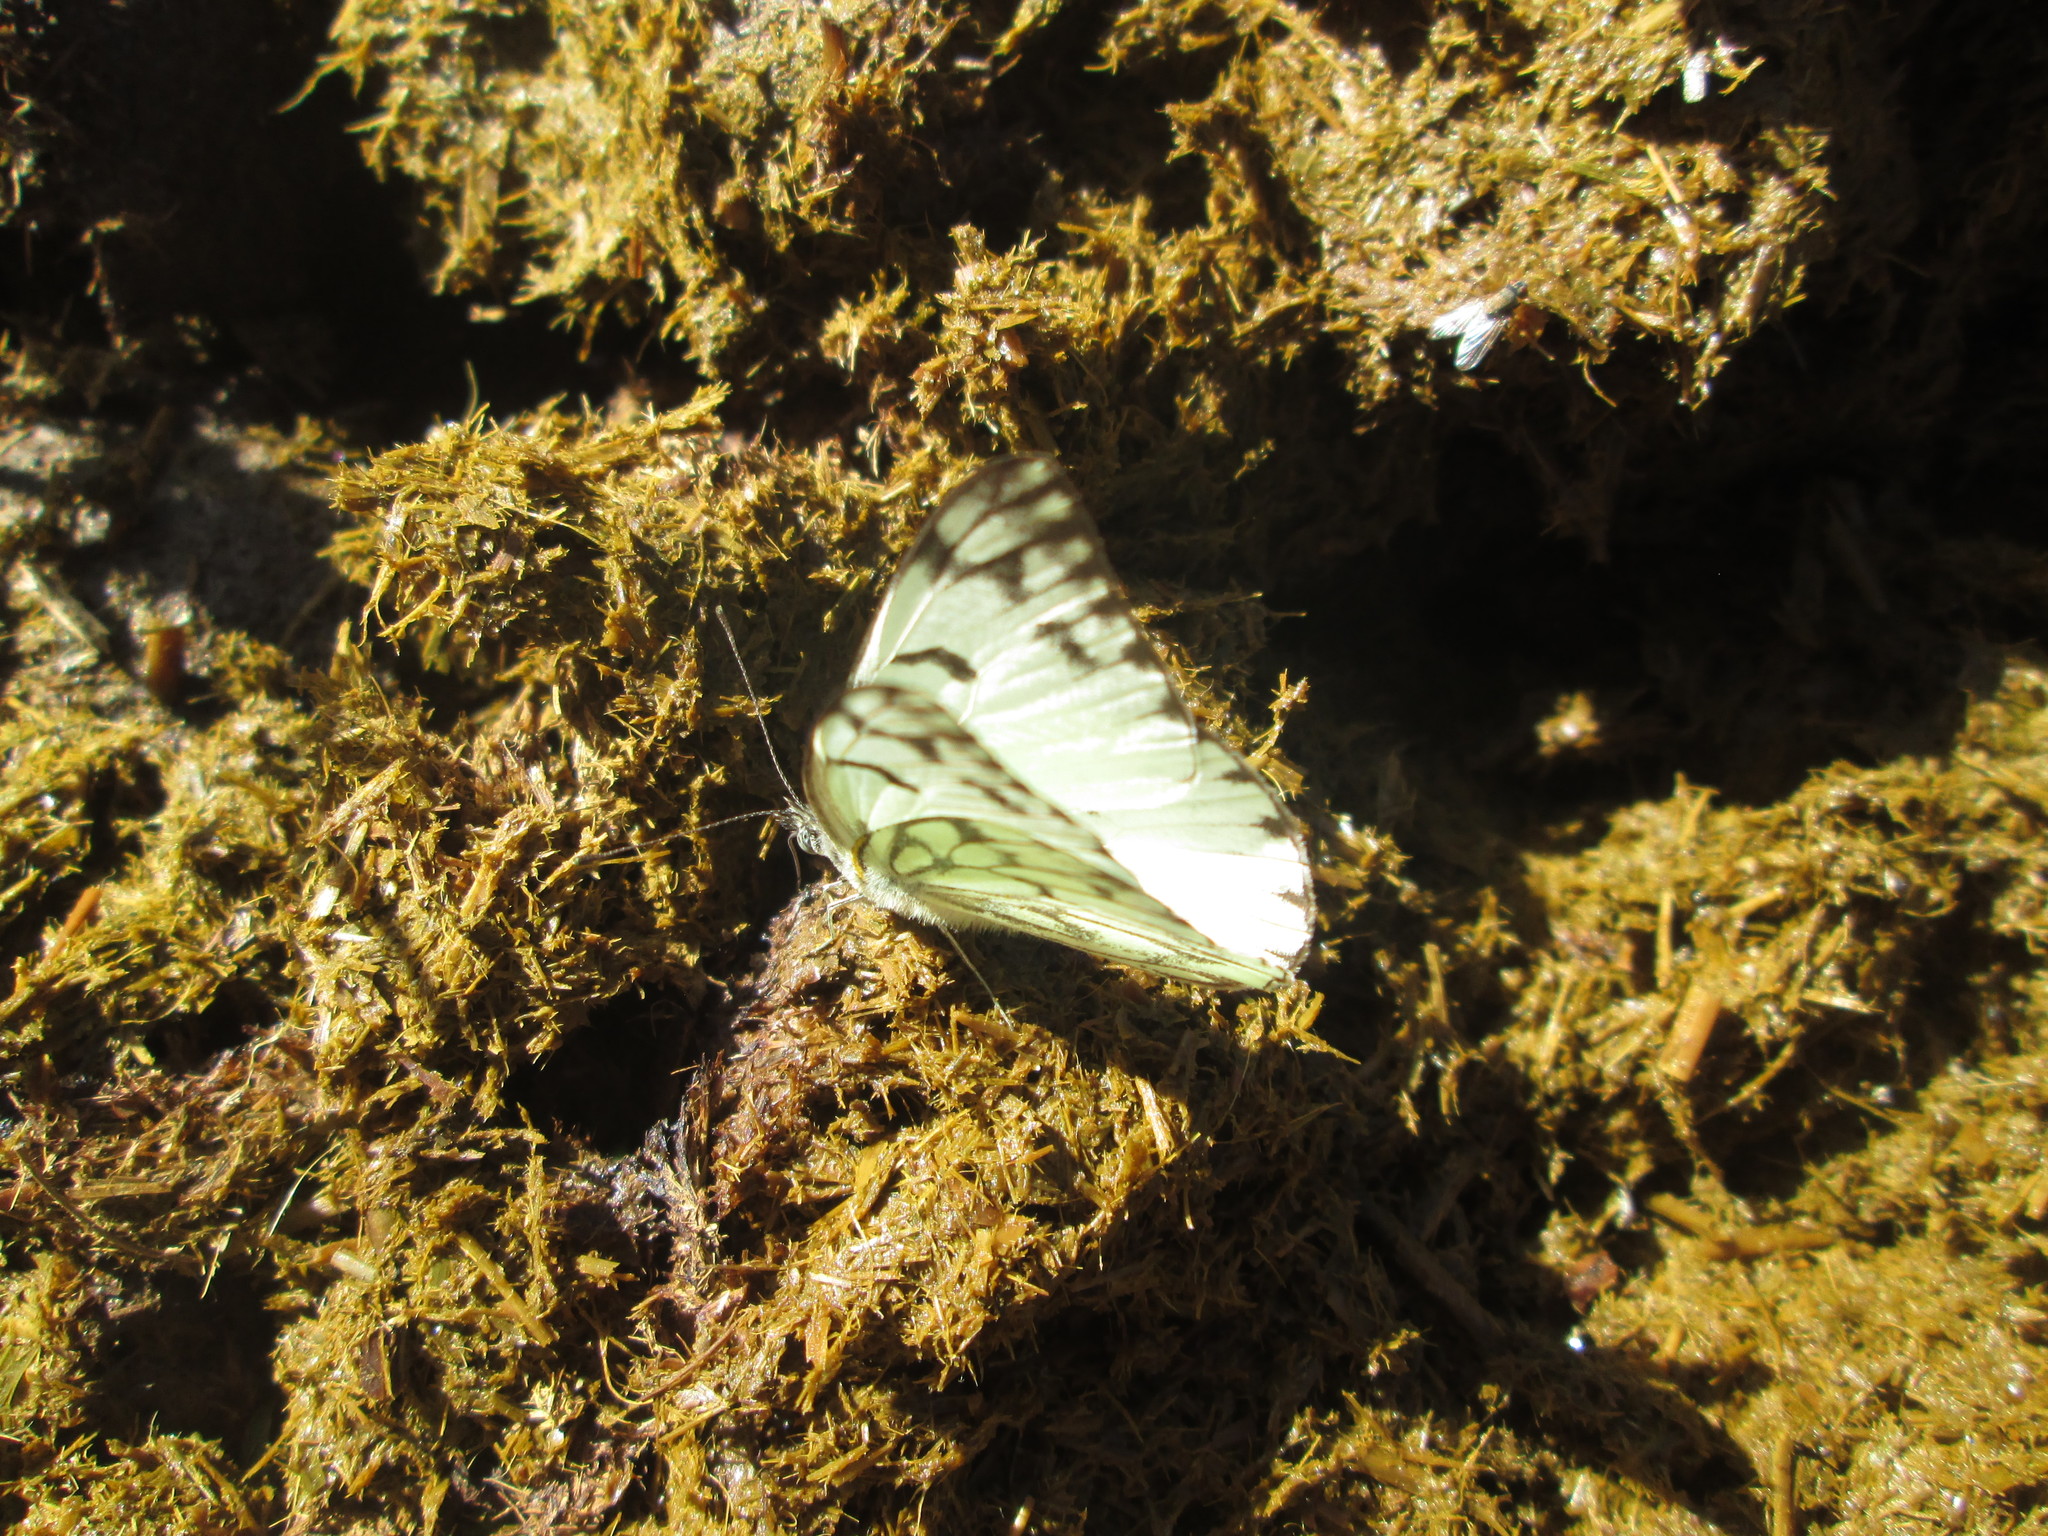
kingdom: Animalia
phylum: Arthropoda
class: Insecta
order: Lepidoptera
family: Pieridae
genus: Belenois
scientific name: Belenois gidica
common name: Pointed caper white
